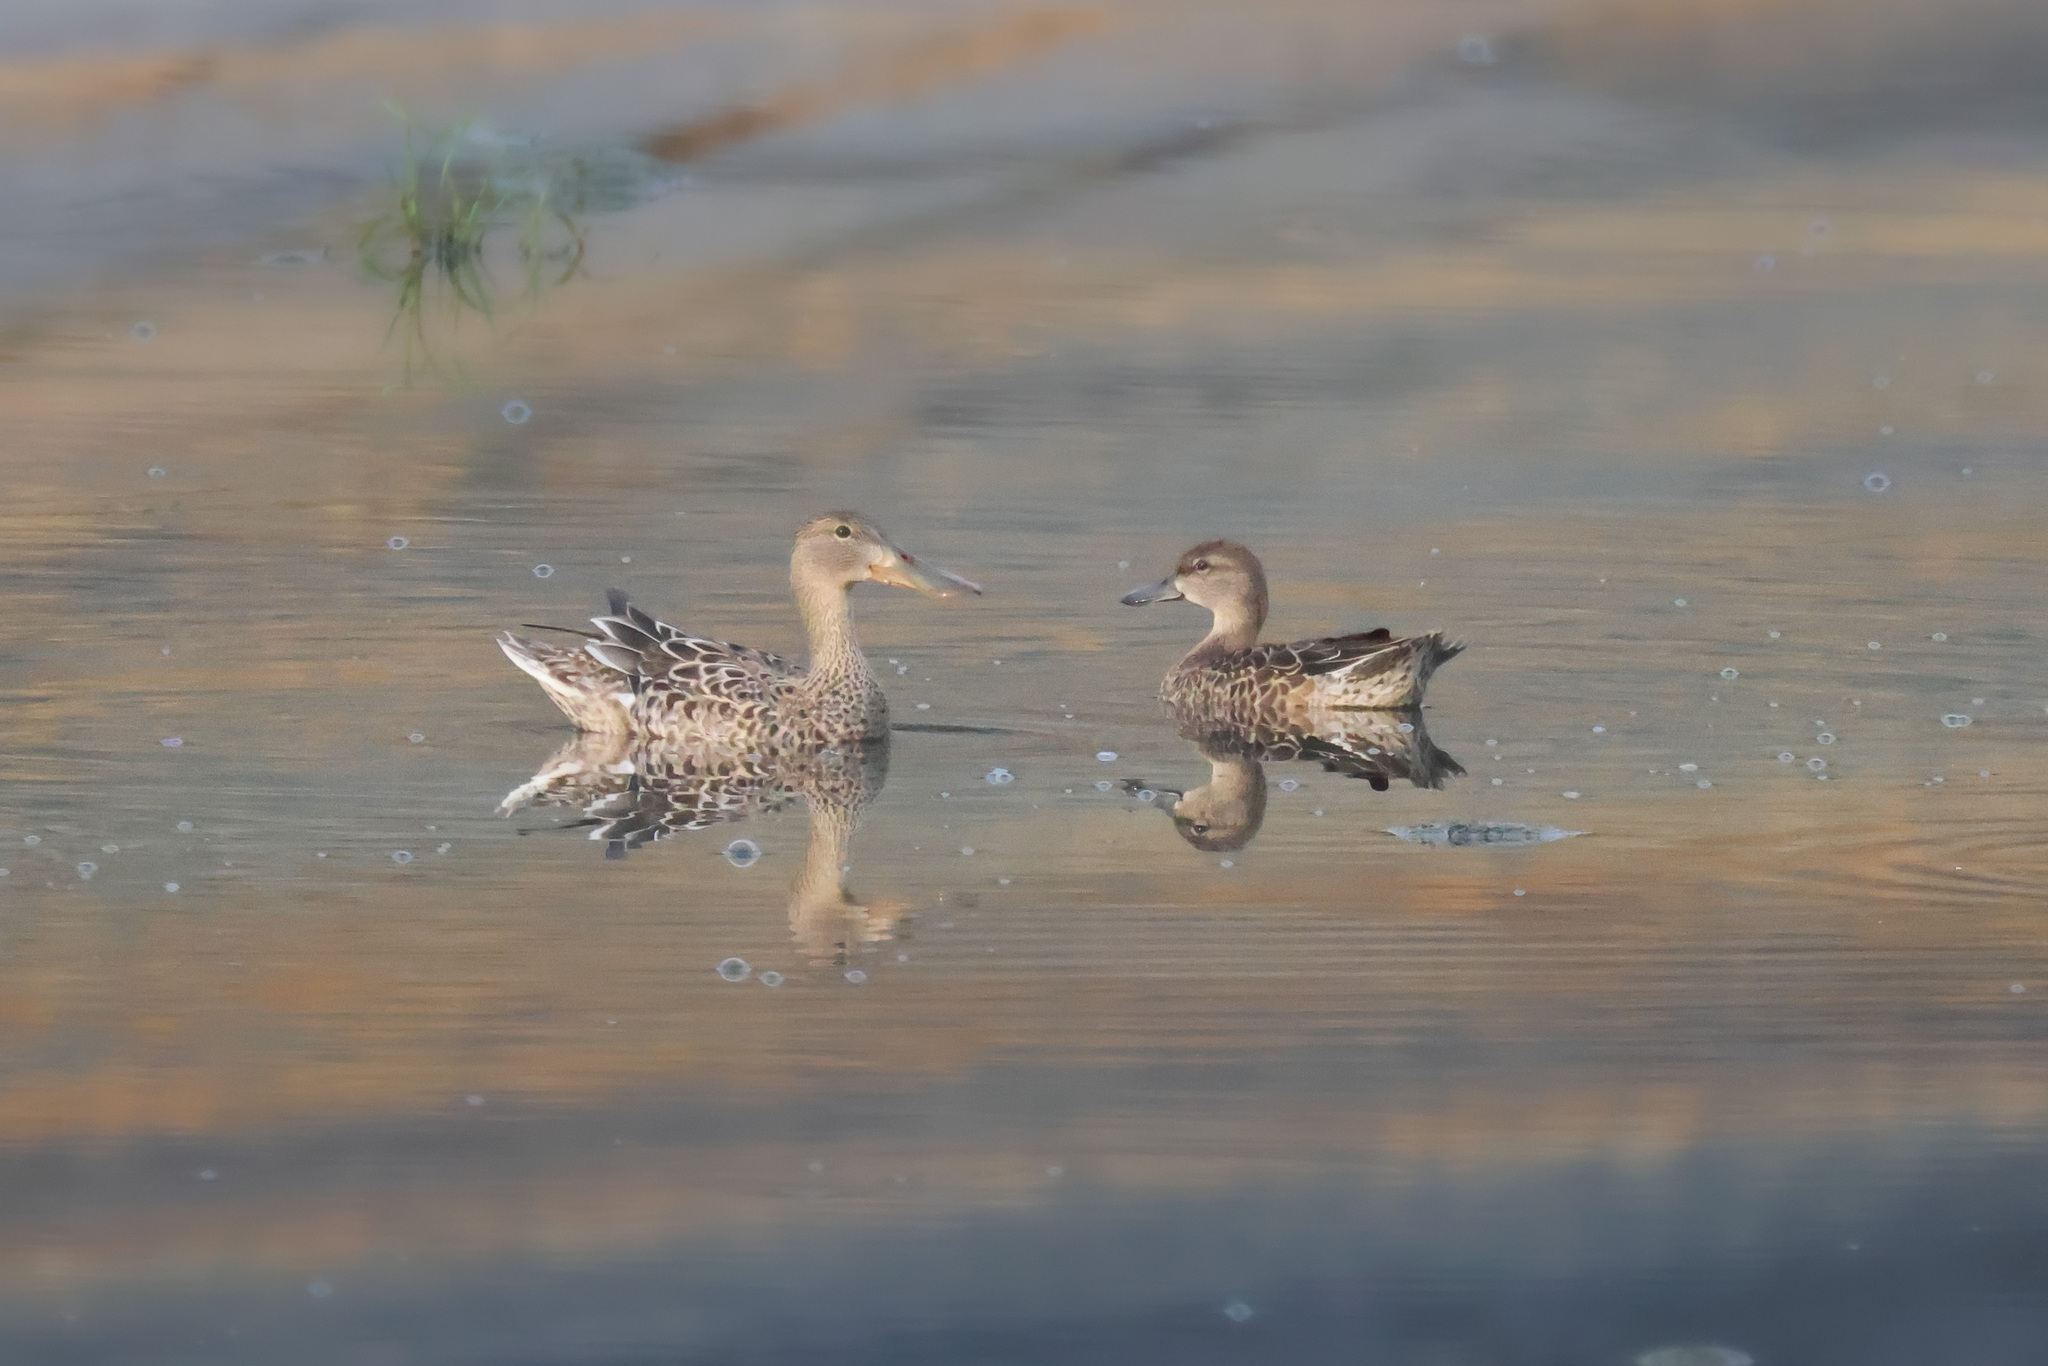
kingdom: Animalia
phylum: Chordata
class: Aves
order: Anseriformes
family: Anatidae
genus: Spatula
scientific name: Spatula discors
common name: Blue-winged teal
